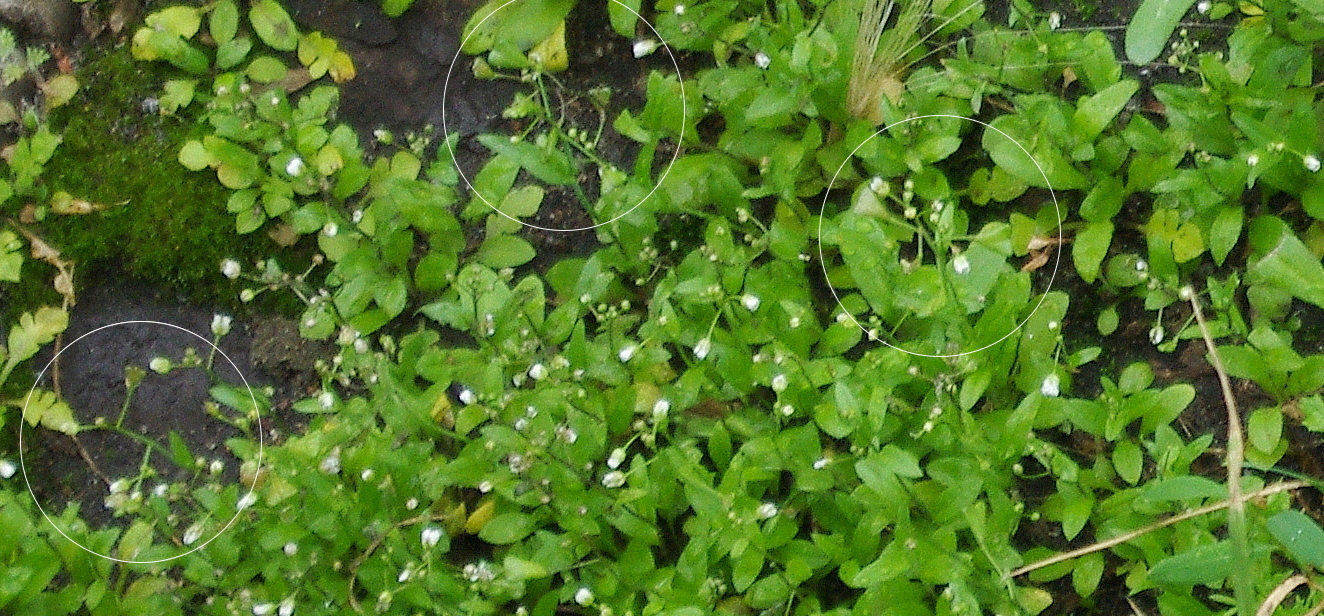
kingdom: Plantae
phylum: Tracheophyta
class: Magnoliopsida
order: Brassicales
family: Brassicaceae
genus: Capsella
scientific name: Capsella bursa-pastoris
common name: Shepherd's purse
